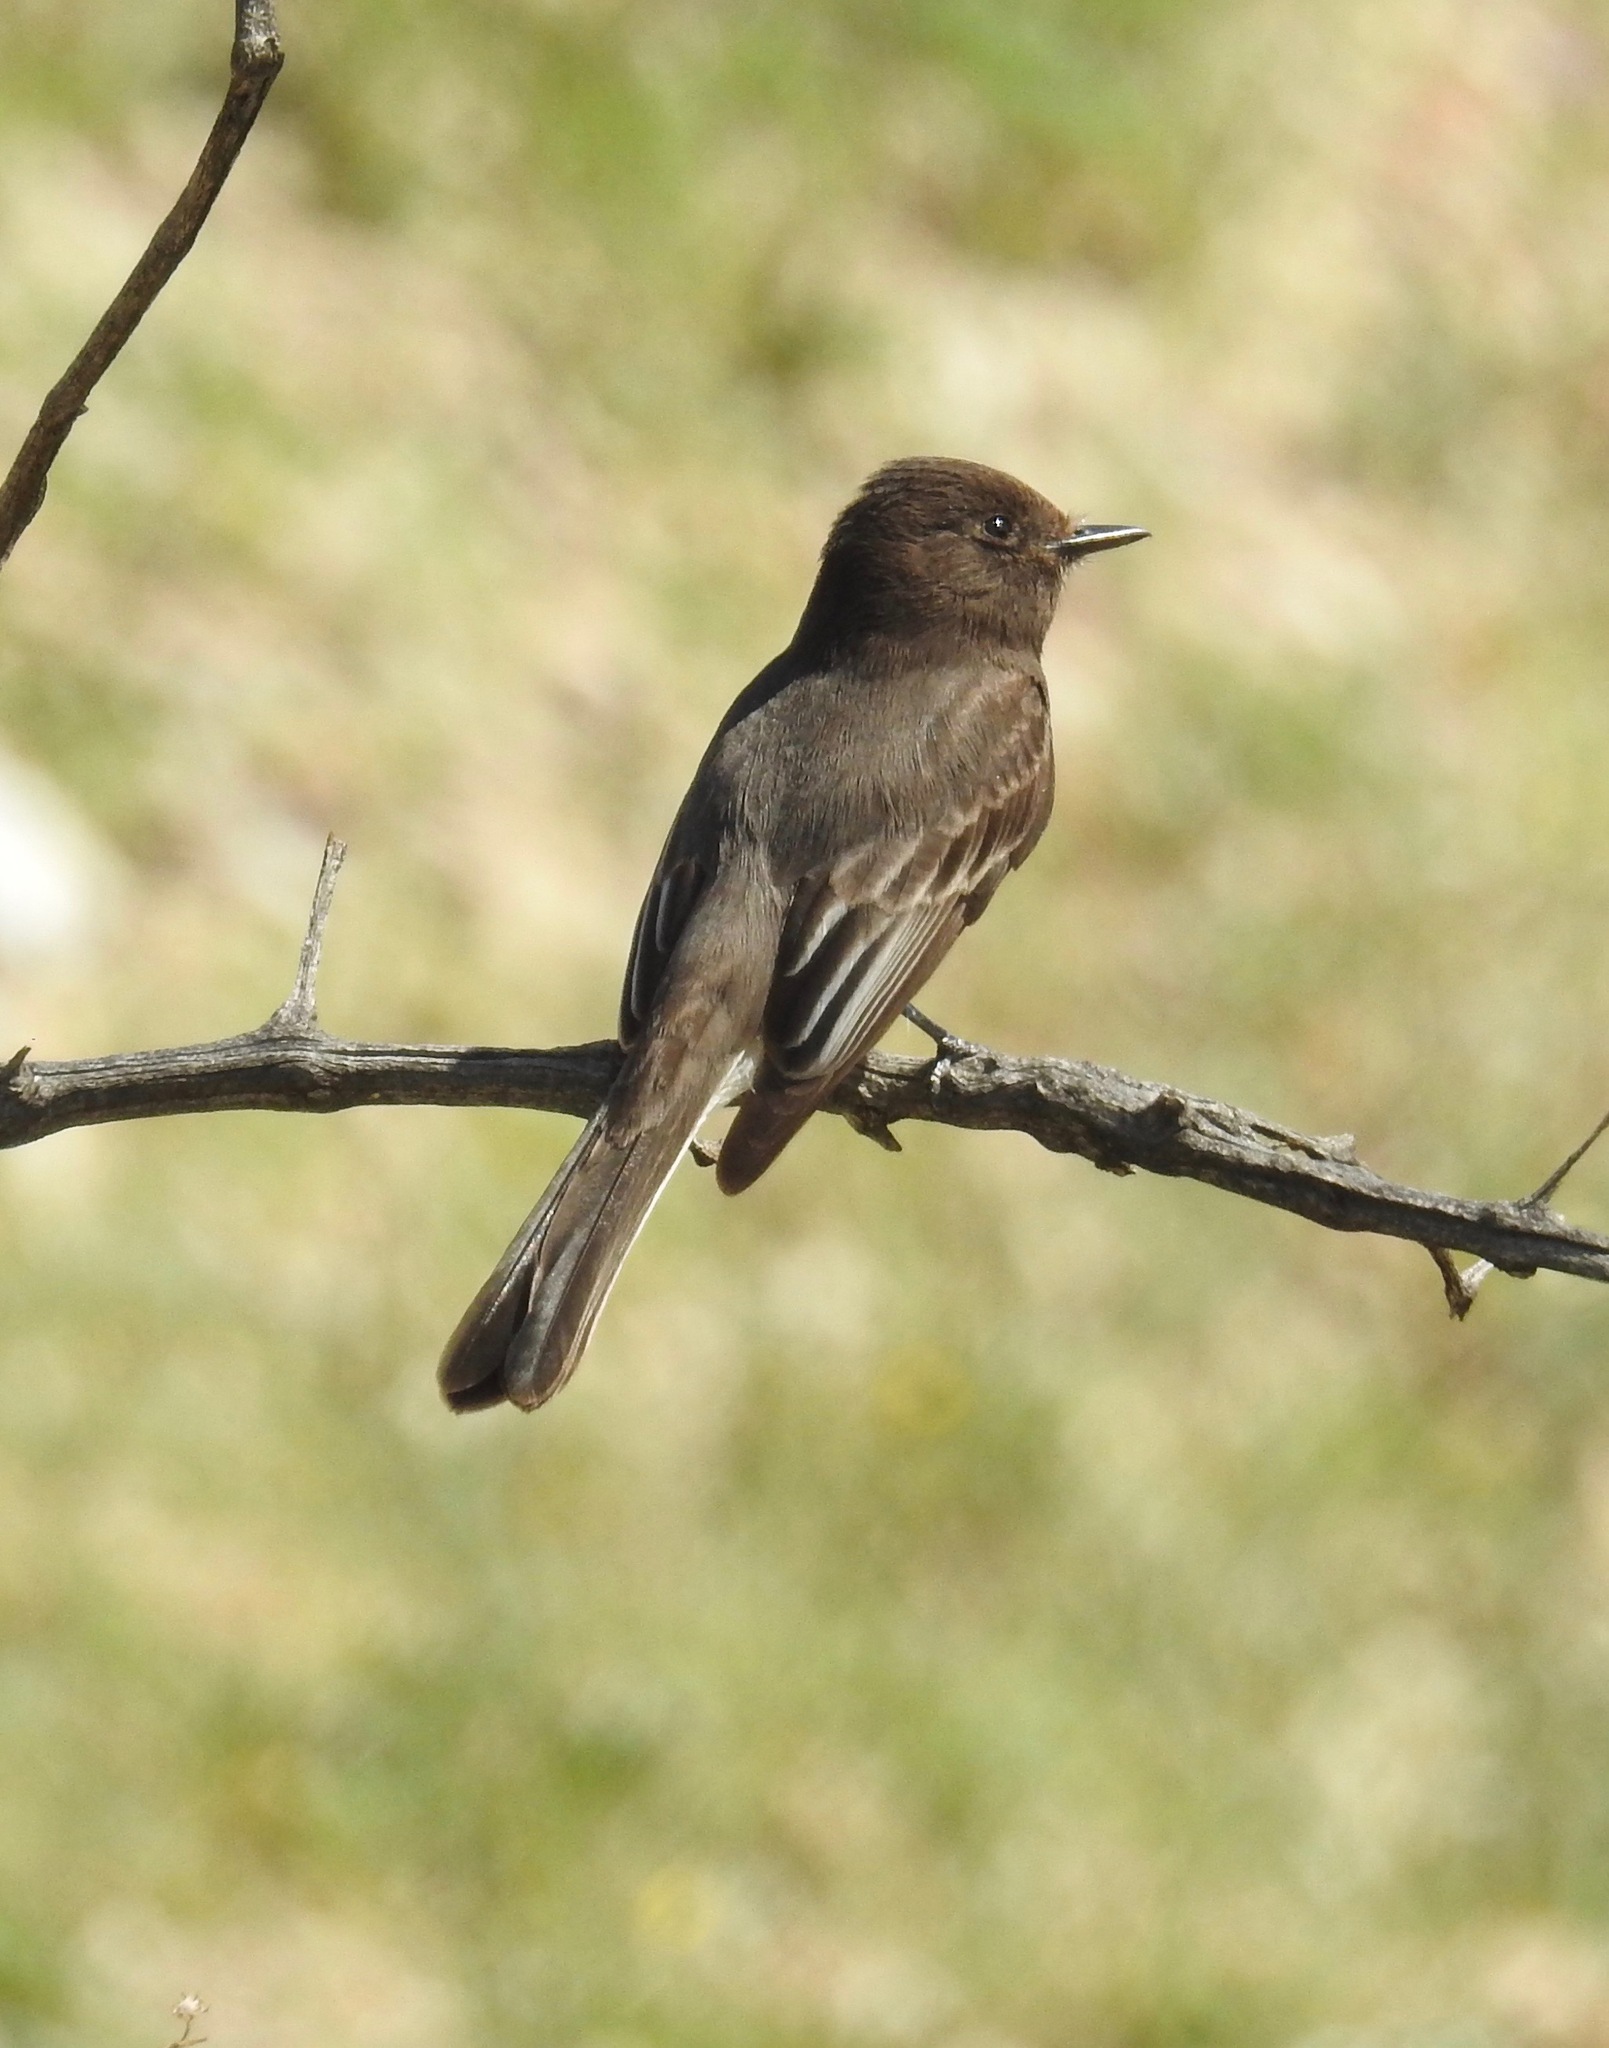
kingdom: Animalia
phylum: Chordata
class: Aves
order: Passeriformes
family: Tyrannidae
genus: Sayornis
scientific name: Sayornis nigricans
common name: Black phoebe
